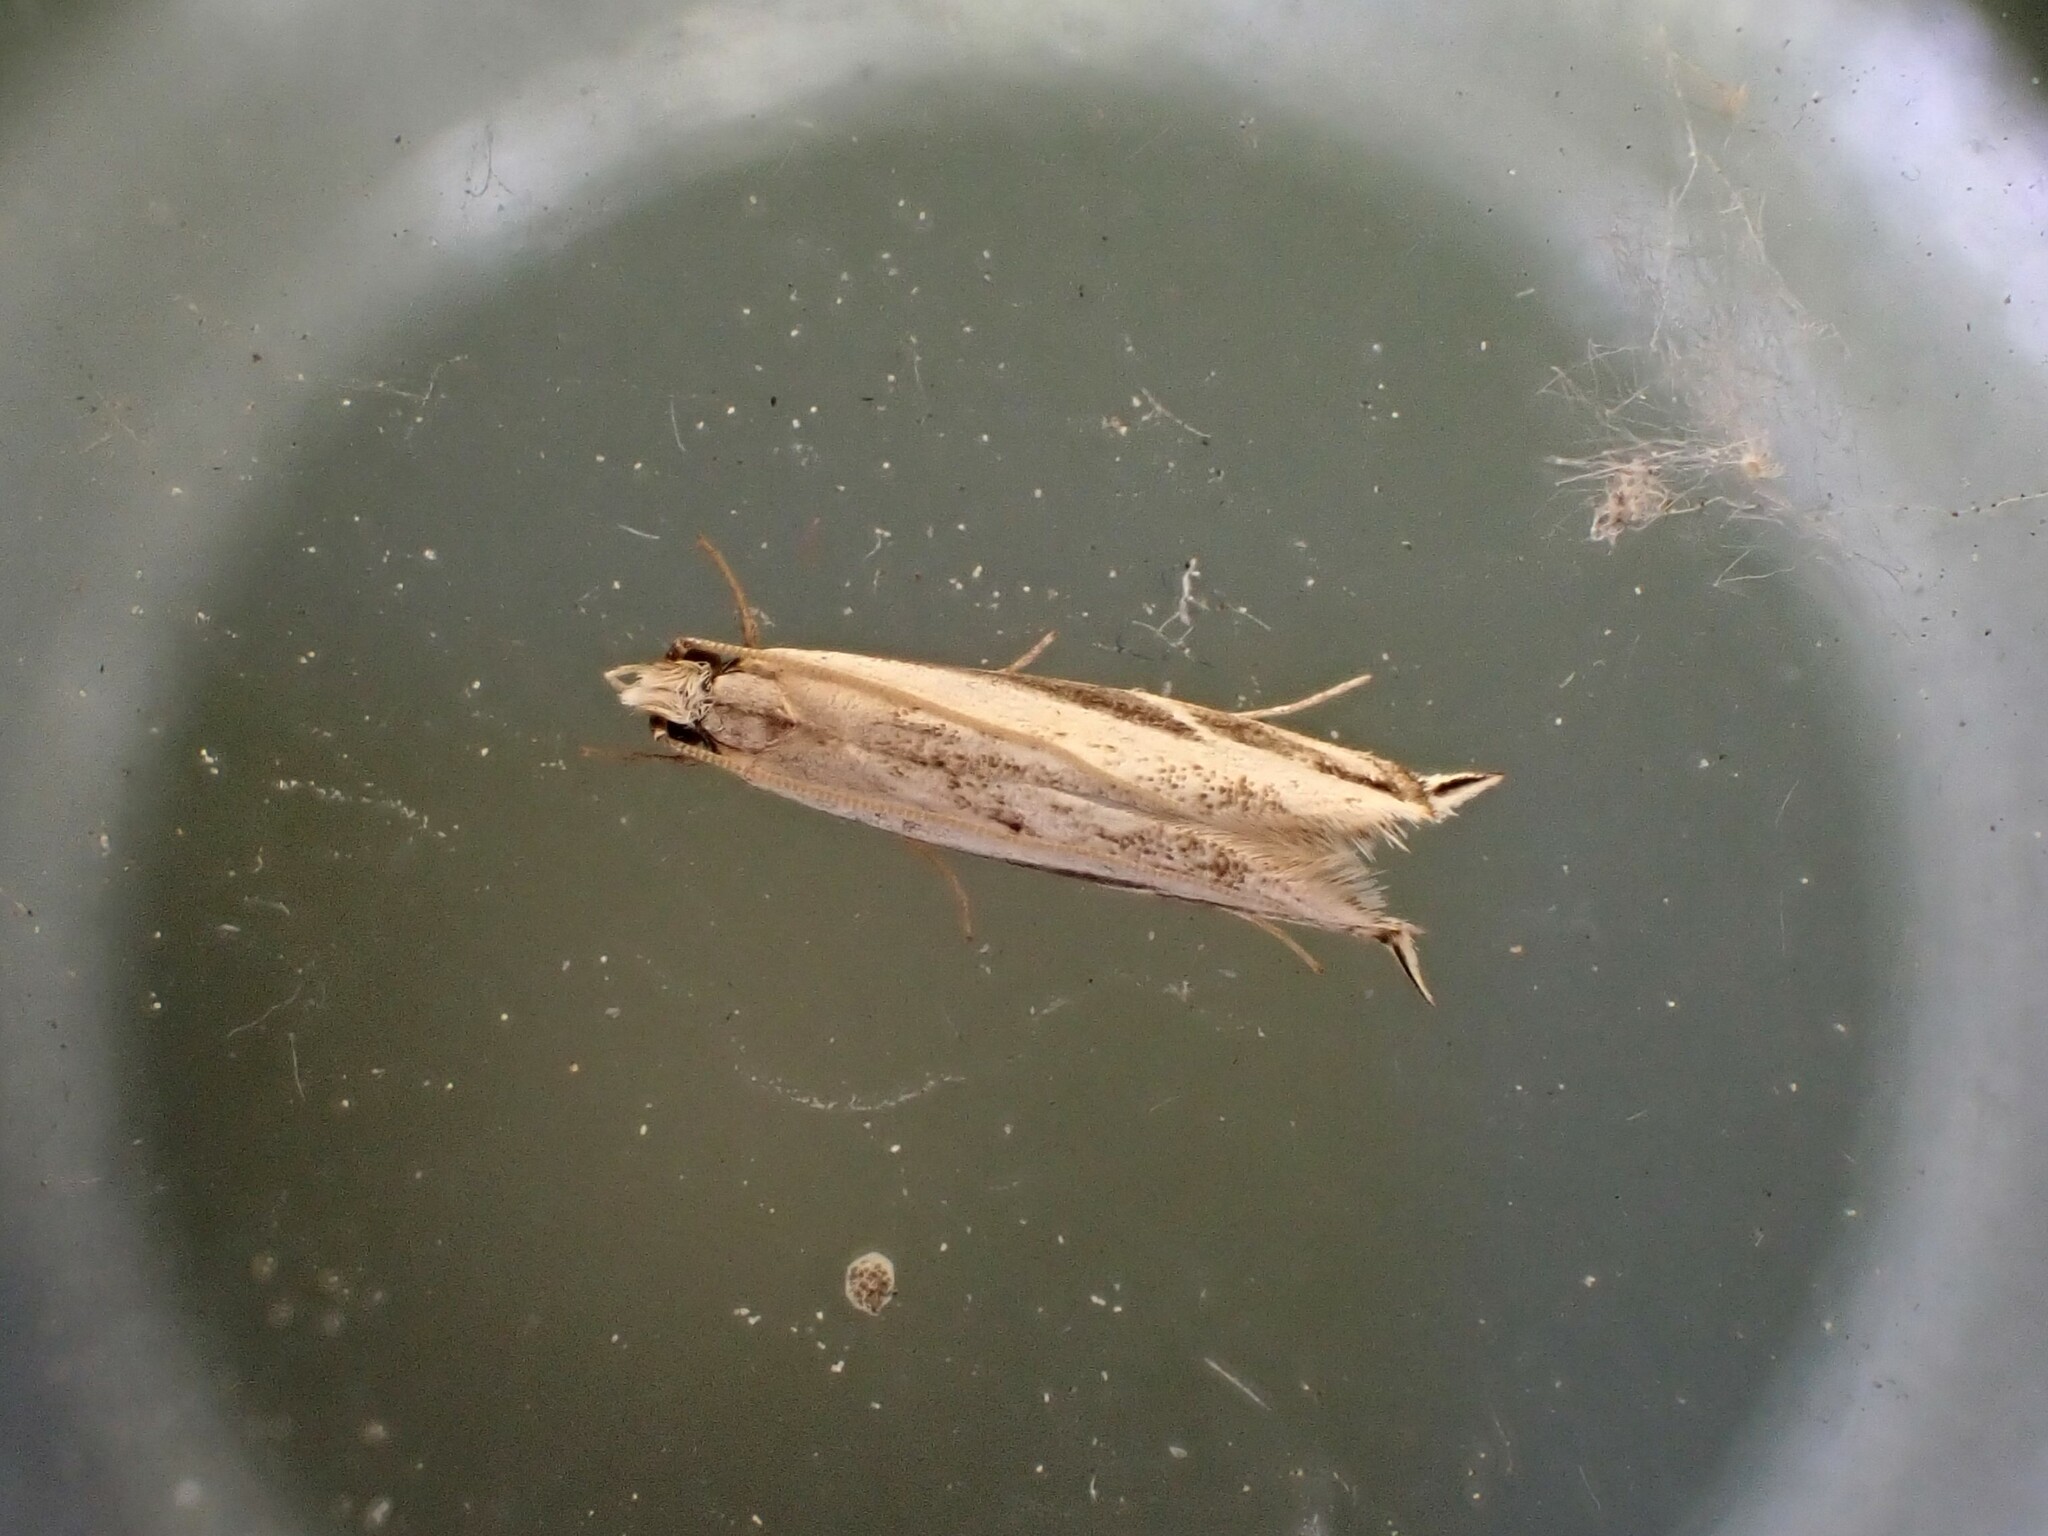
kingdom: Animalia
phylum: Arthropoda
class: Insecta
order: Lepidoptera
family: Tineidae
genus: Erechthias
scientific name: Erechthias terminella
